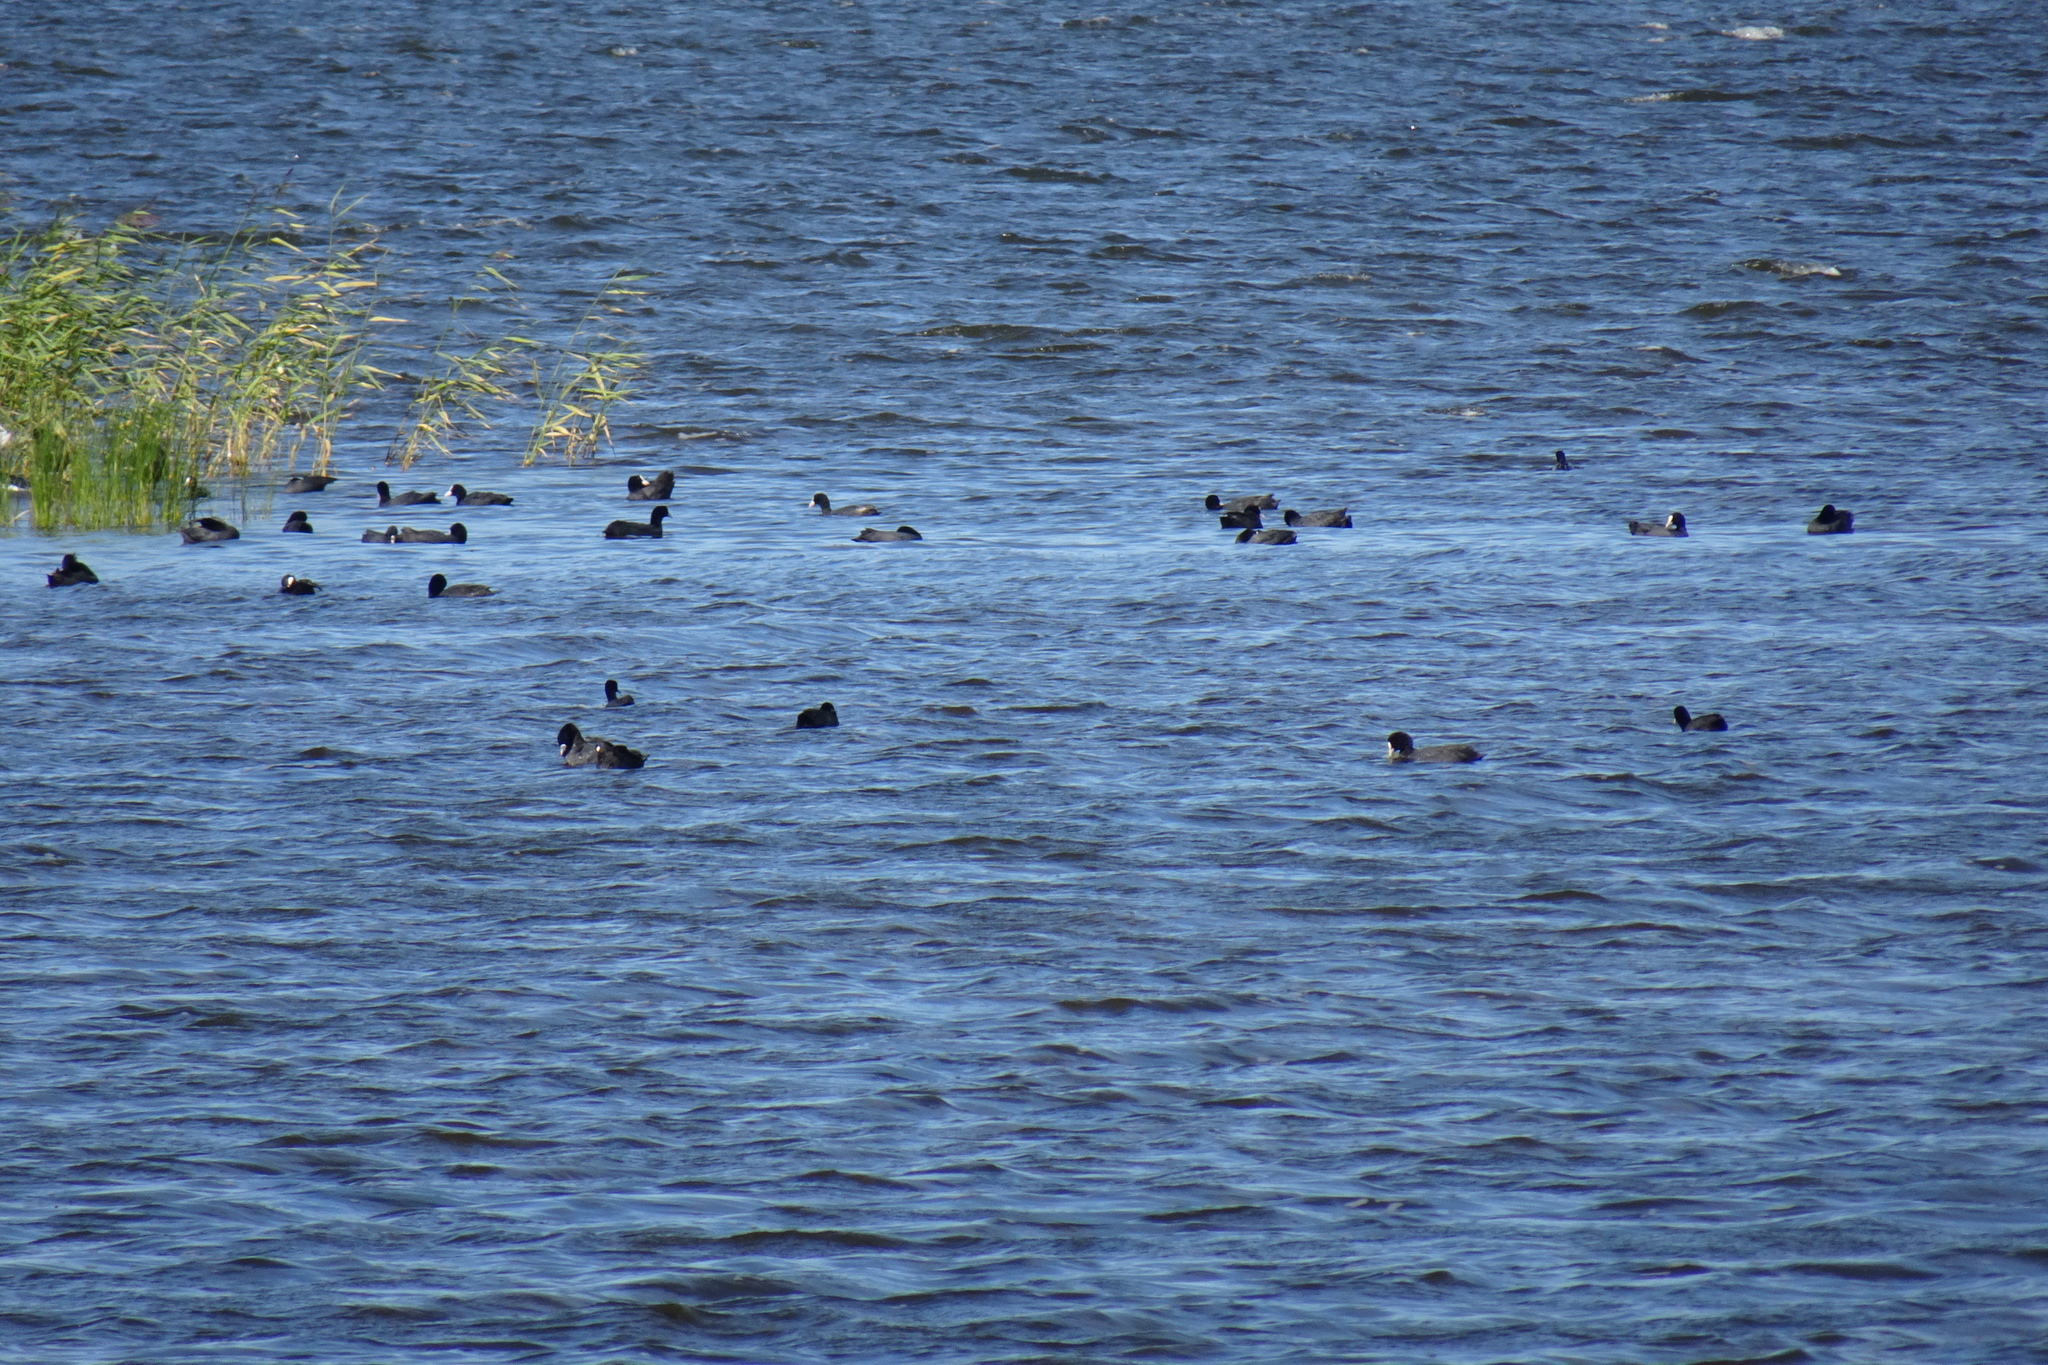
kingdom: Animalia
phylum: Chordata
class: Aves
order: Gruiformes
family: Rallidae
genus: Fulica
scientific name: Fulica atra
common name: Eurasian coot
